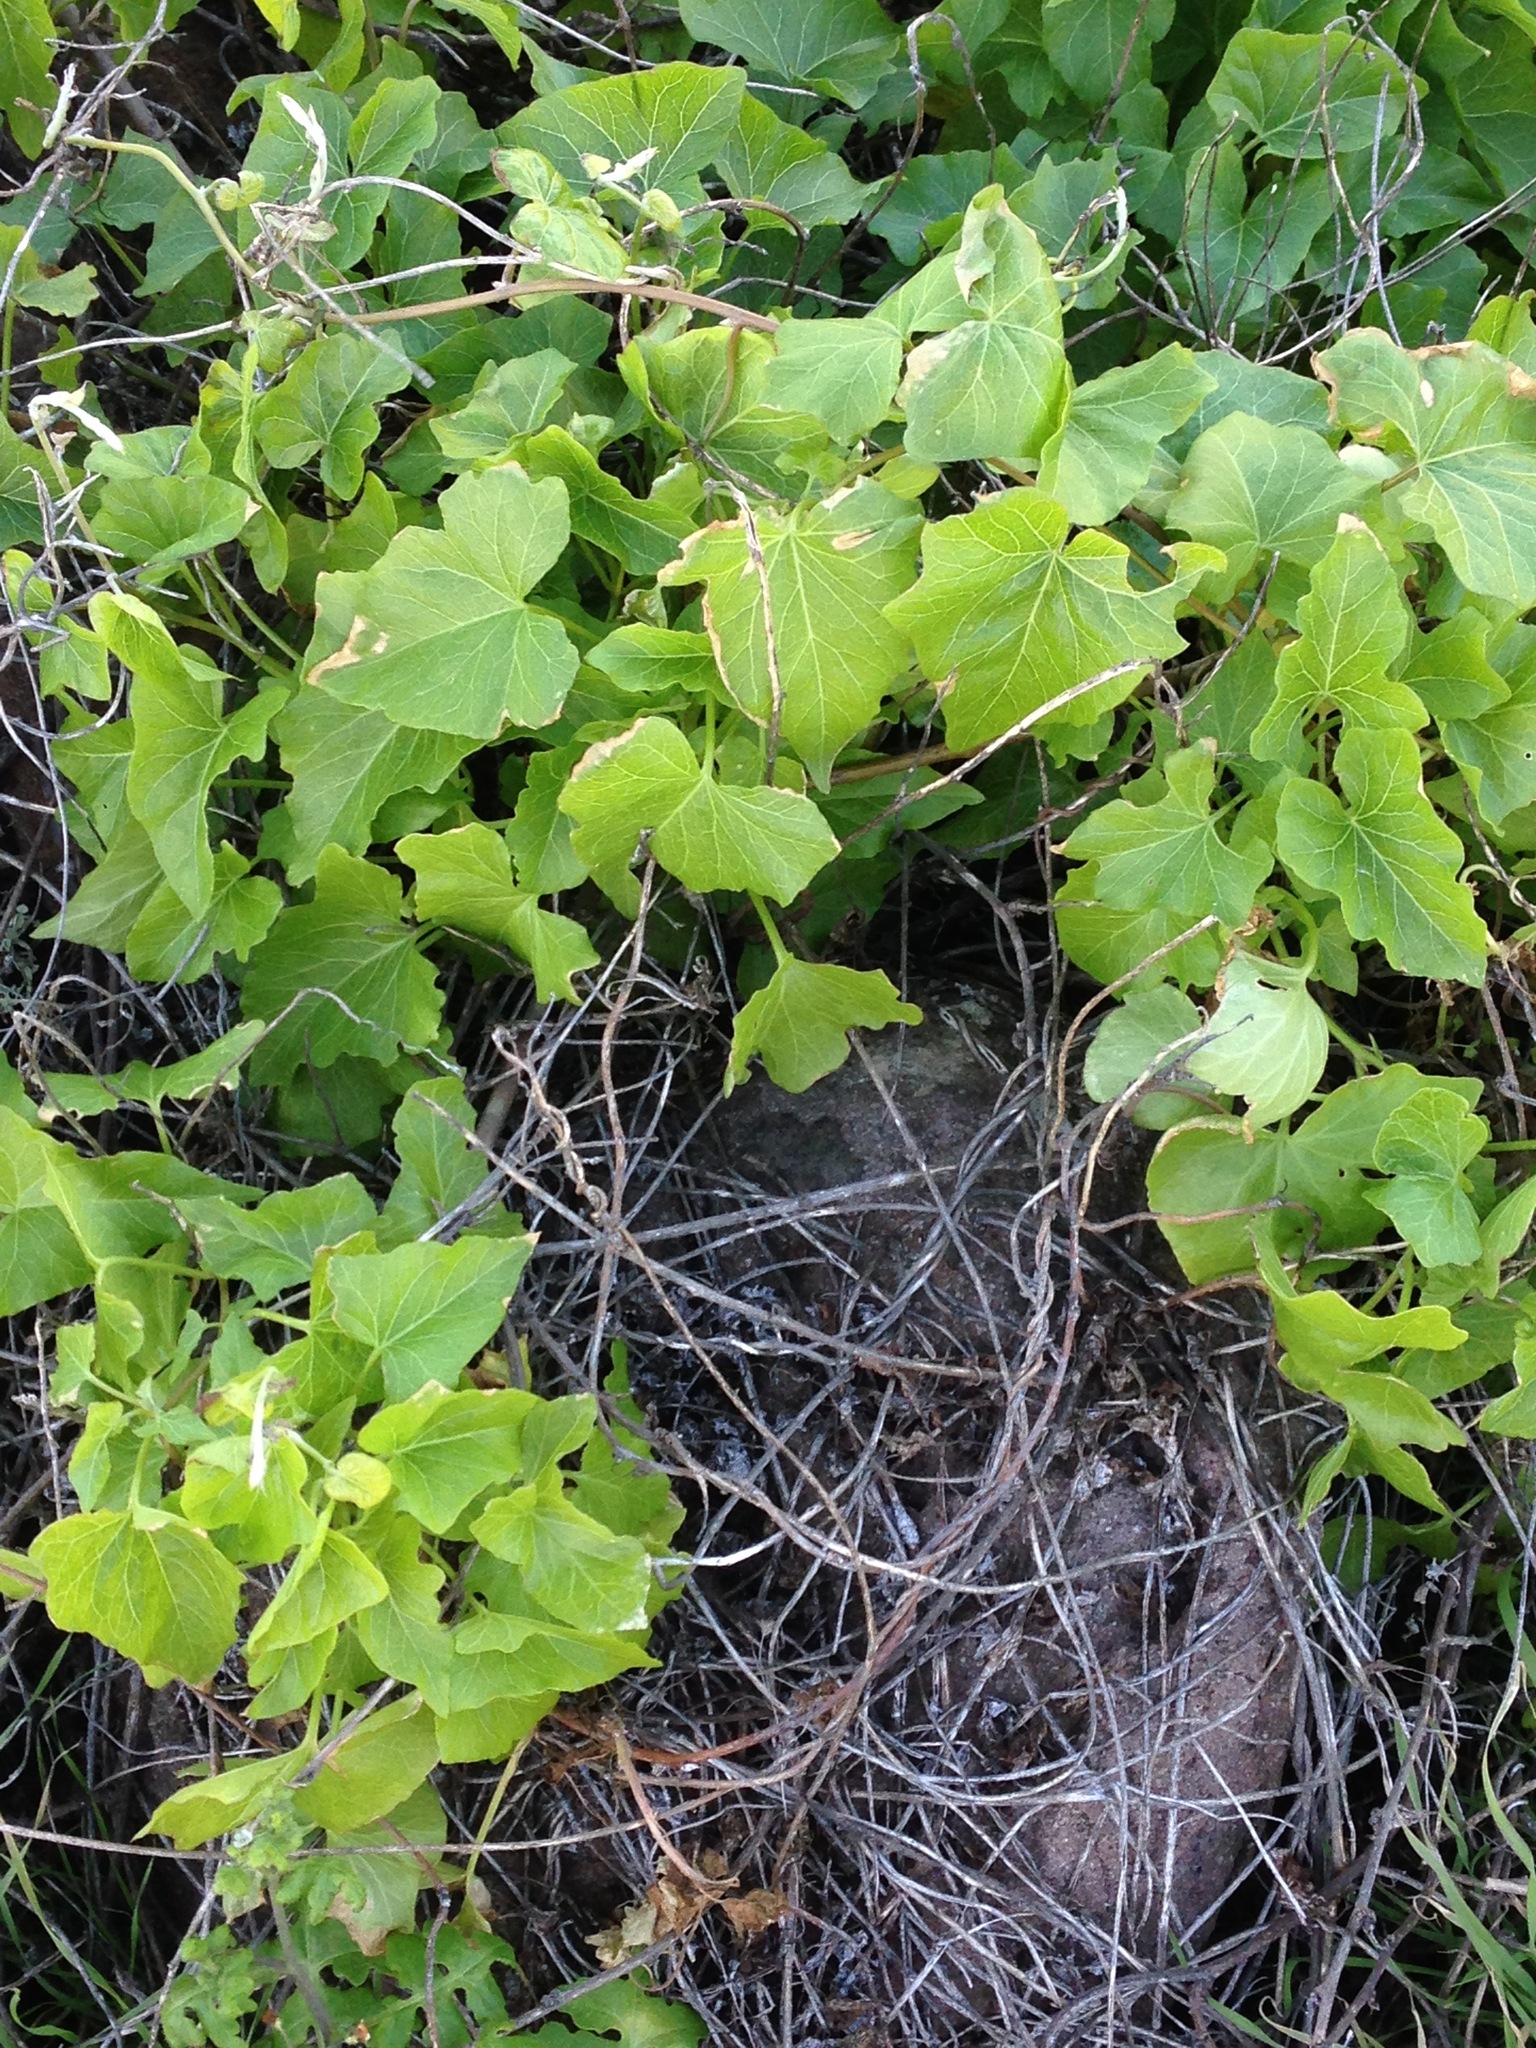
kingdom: Plantae
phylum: Tracheophyta
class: Magnoliopsida
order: Solanales
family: Convolvulaceae
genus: Calystegia
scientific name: Calystegia macrostegia
